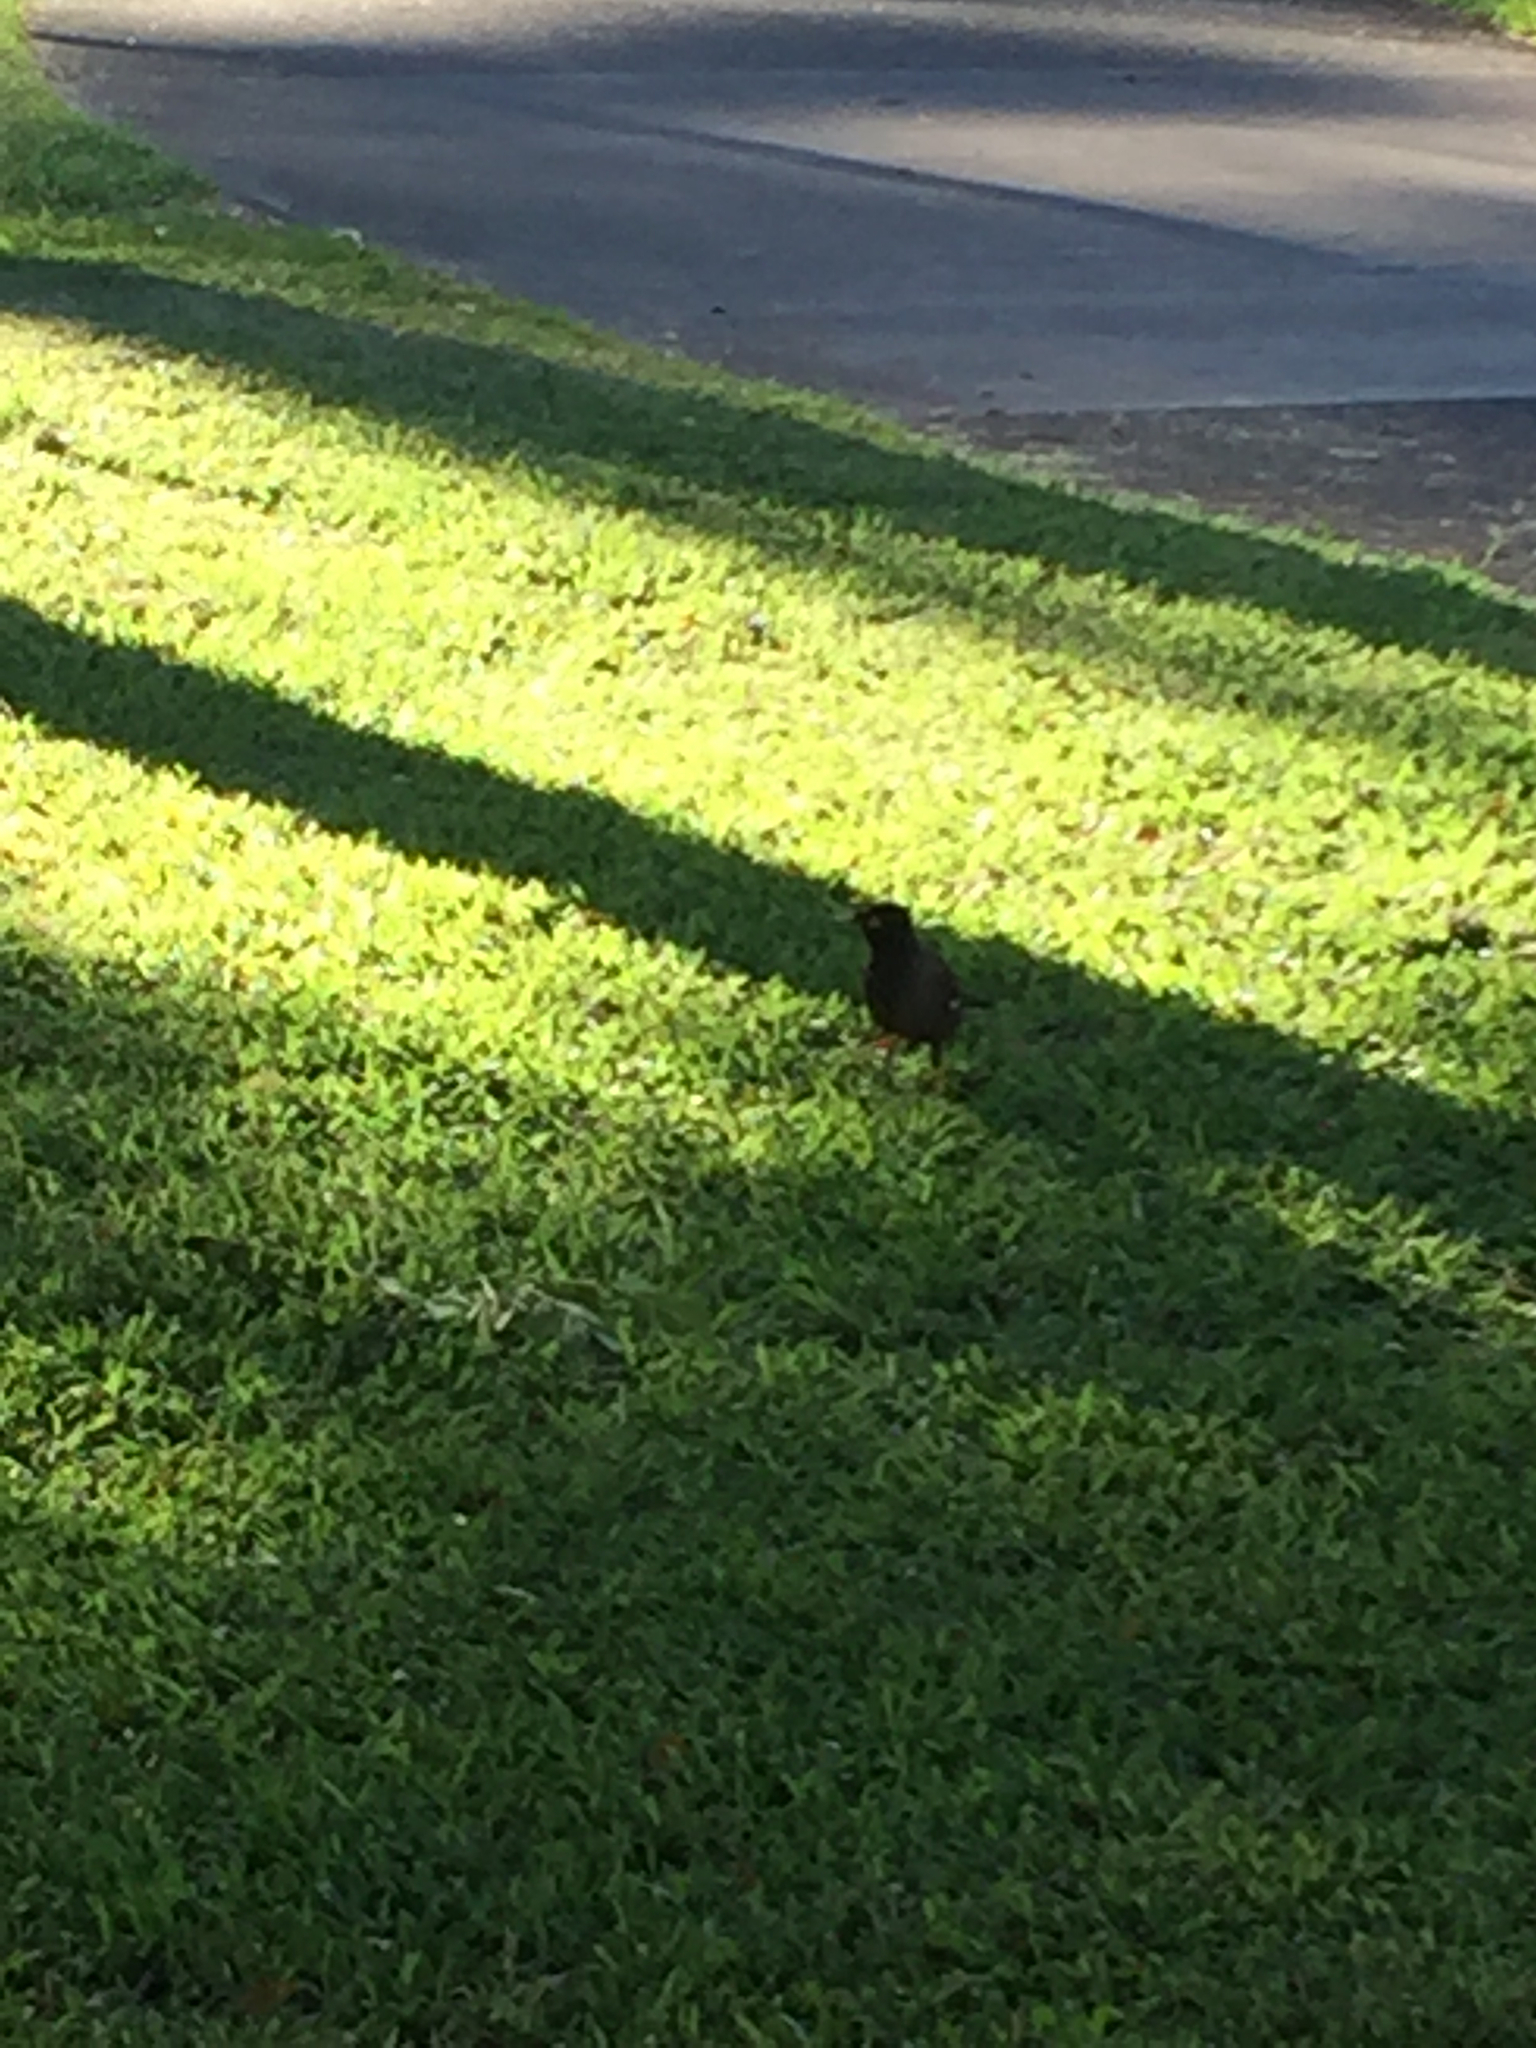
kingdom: Animalia
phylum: Chordata
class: Aves
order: Passeriformes
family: Sturnidae
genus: Acridotheres
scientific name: Acridotheres tristis
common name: Common myna
